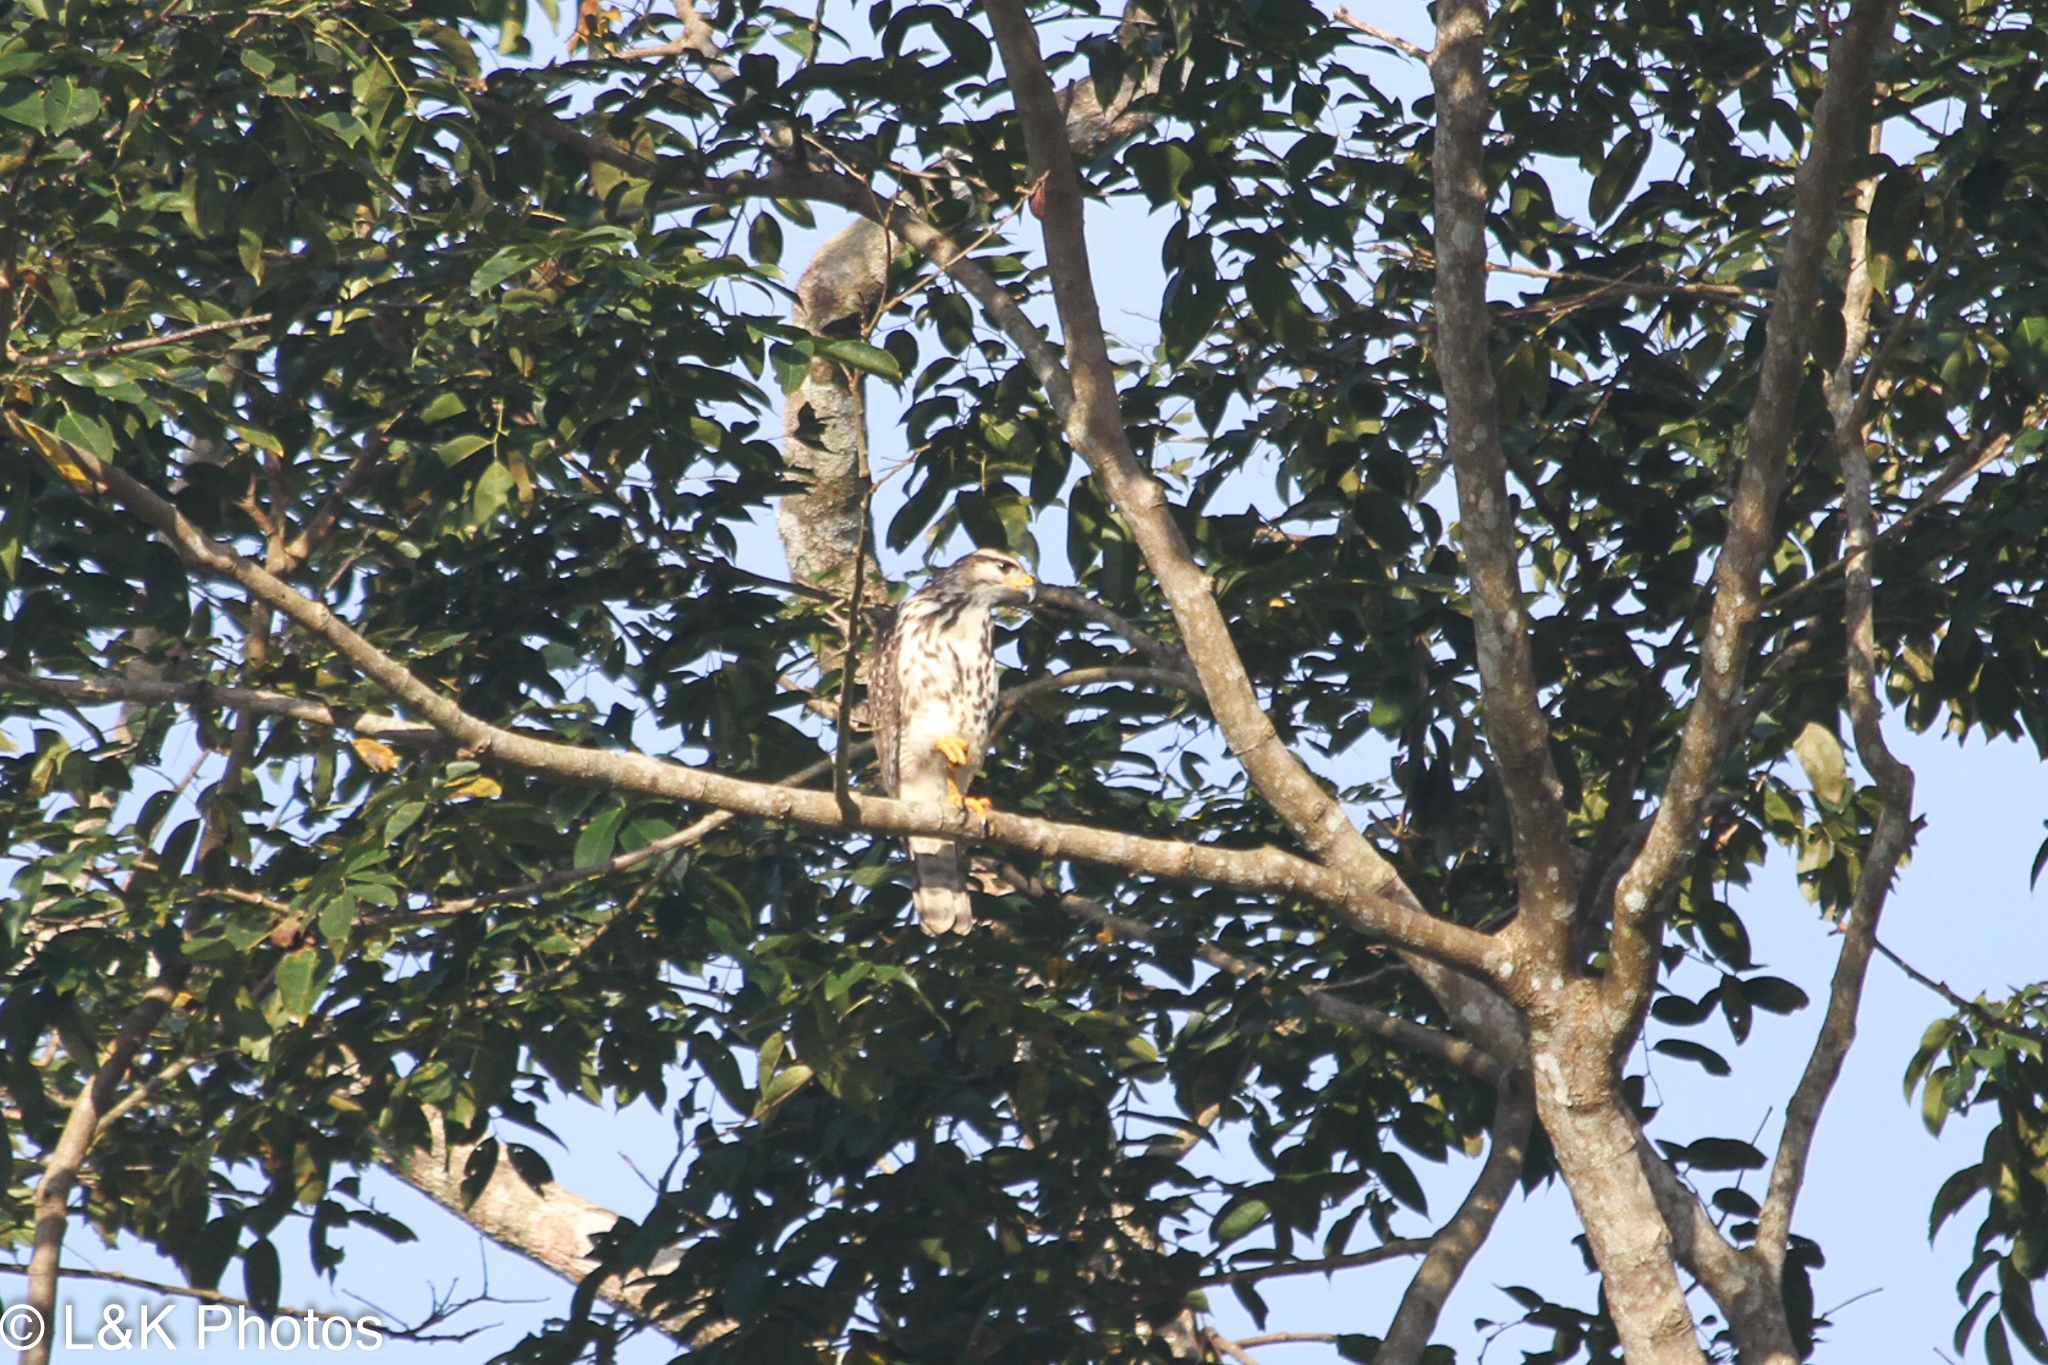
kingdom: Animalia
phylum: Chordata
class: Aves
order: Accipitriformes
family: Accipitridae
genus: Buteo
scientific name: Buteo nitidus
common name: Grey-lined hawk
